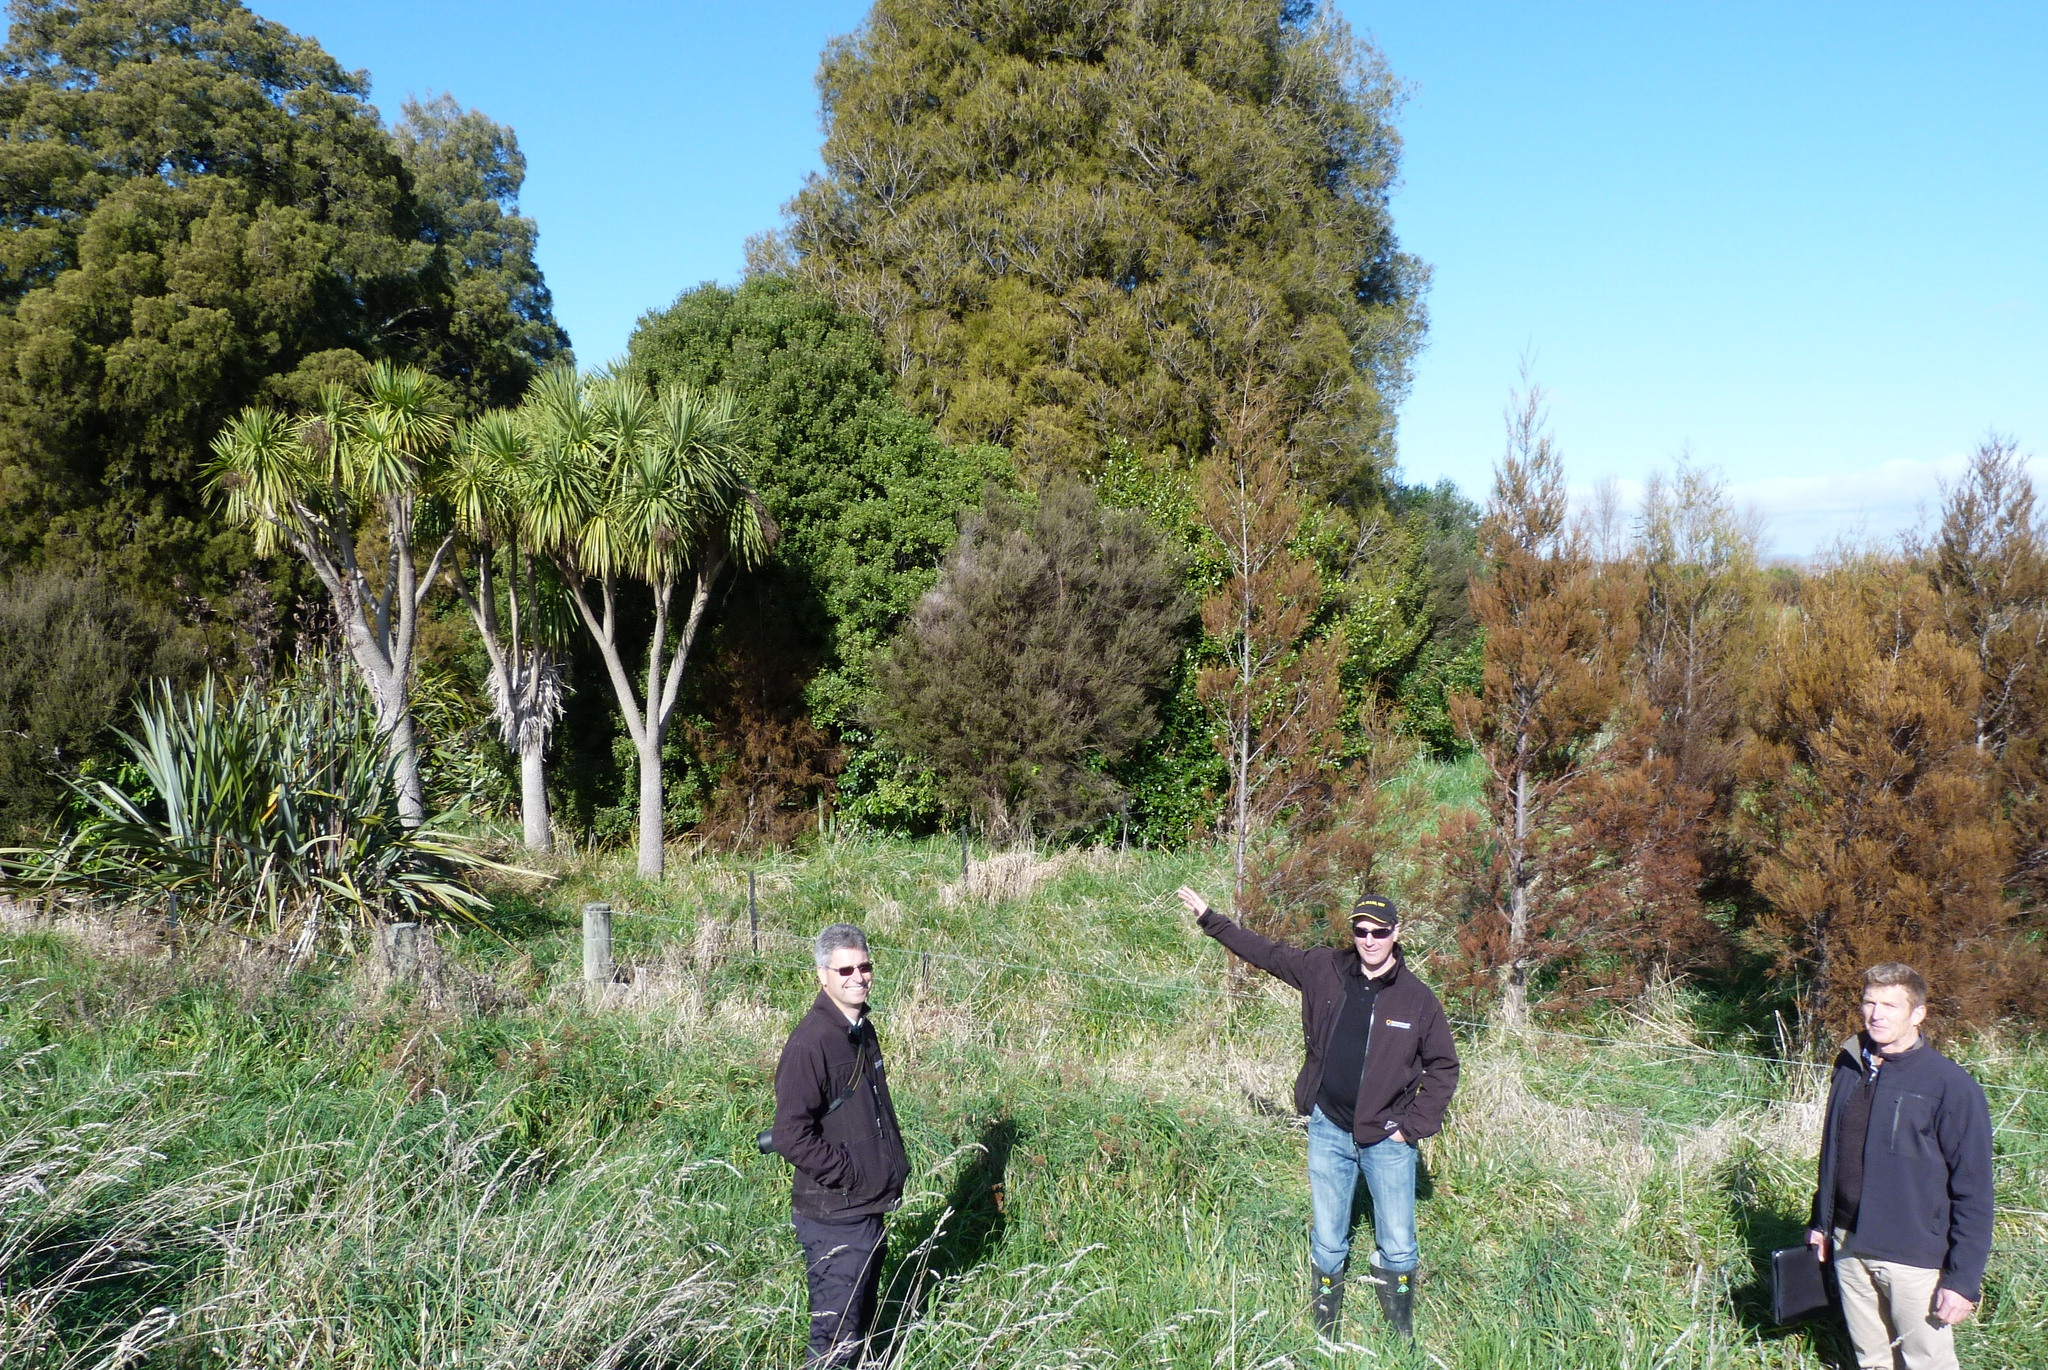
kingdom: Plantae
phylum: Tracheophyta
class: Pinopsida
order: Pinales
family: Podocarpaceae
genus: Dacrycarpus
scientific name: Dacrycarpus dacrydioides
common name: White pine
